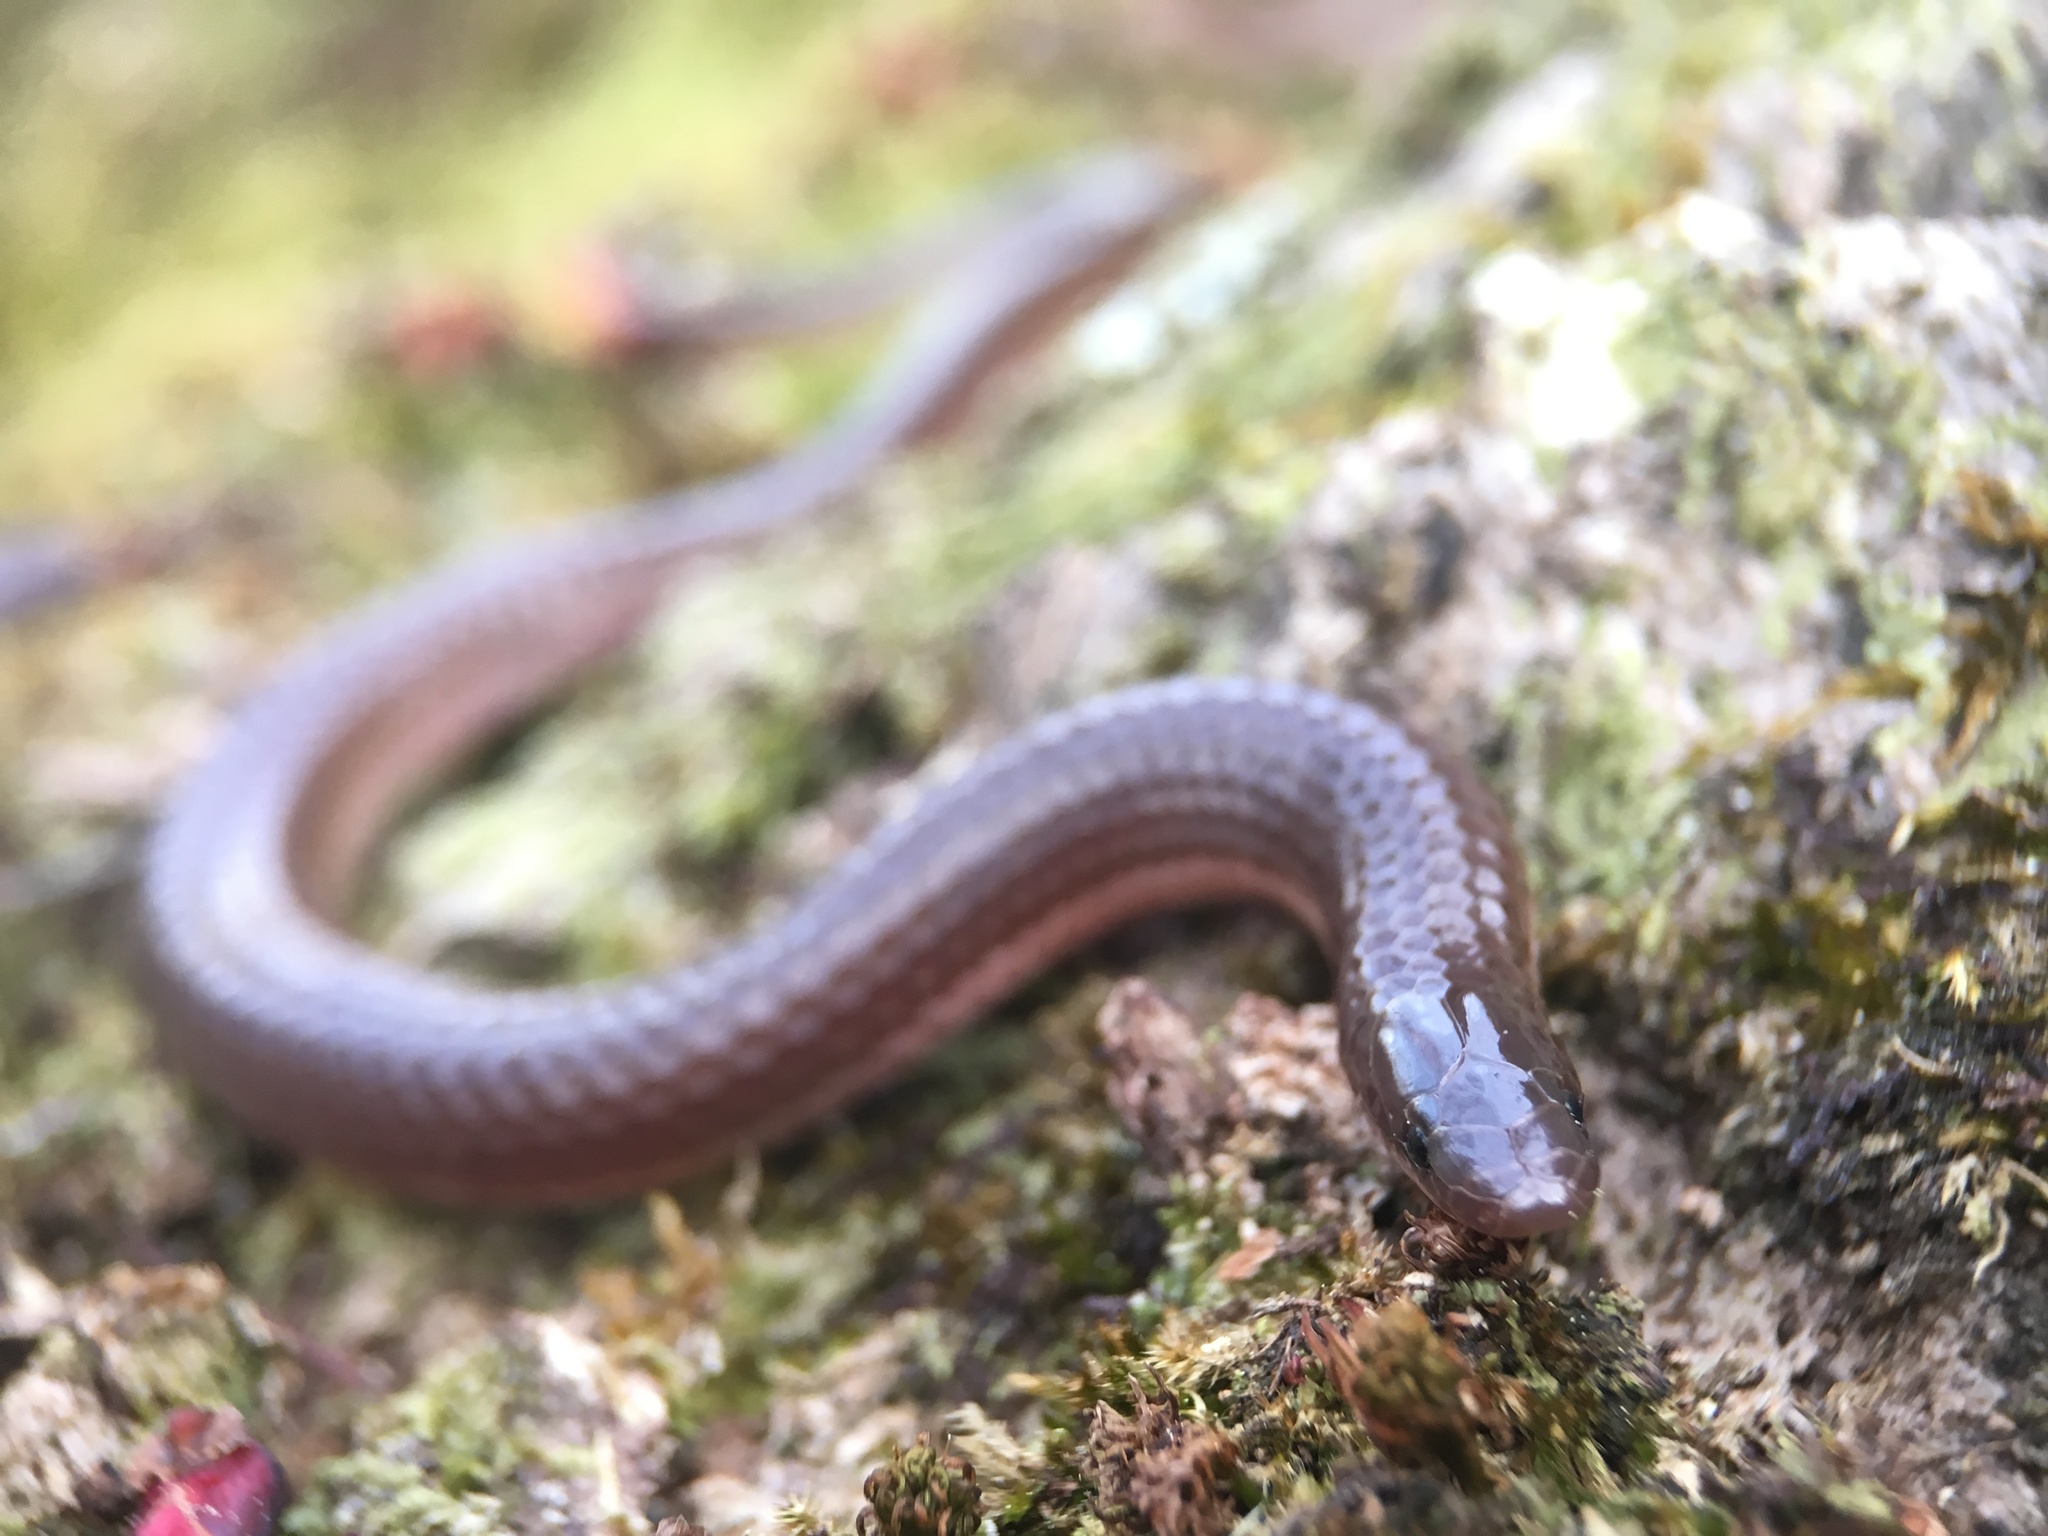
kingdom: Animalia
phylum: Chordata
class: Squamata
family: Colubridae
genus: Carphophis
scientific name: Carphophis amoenus
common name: Eastern worm snake
